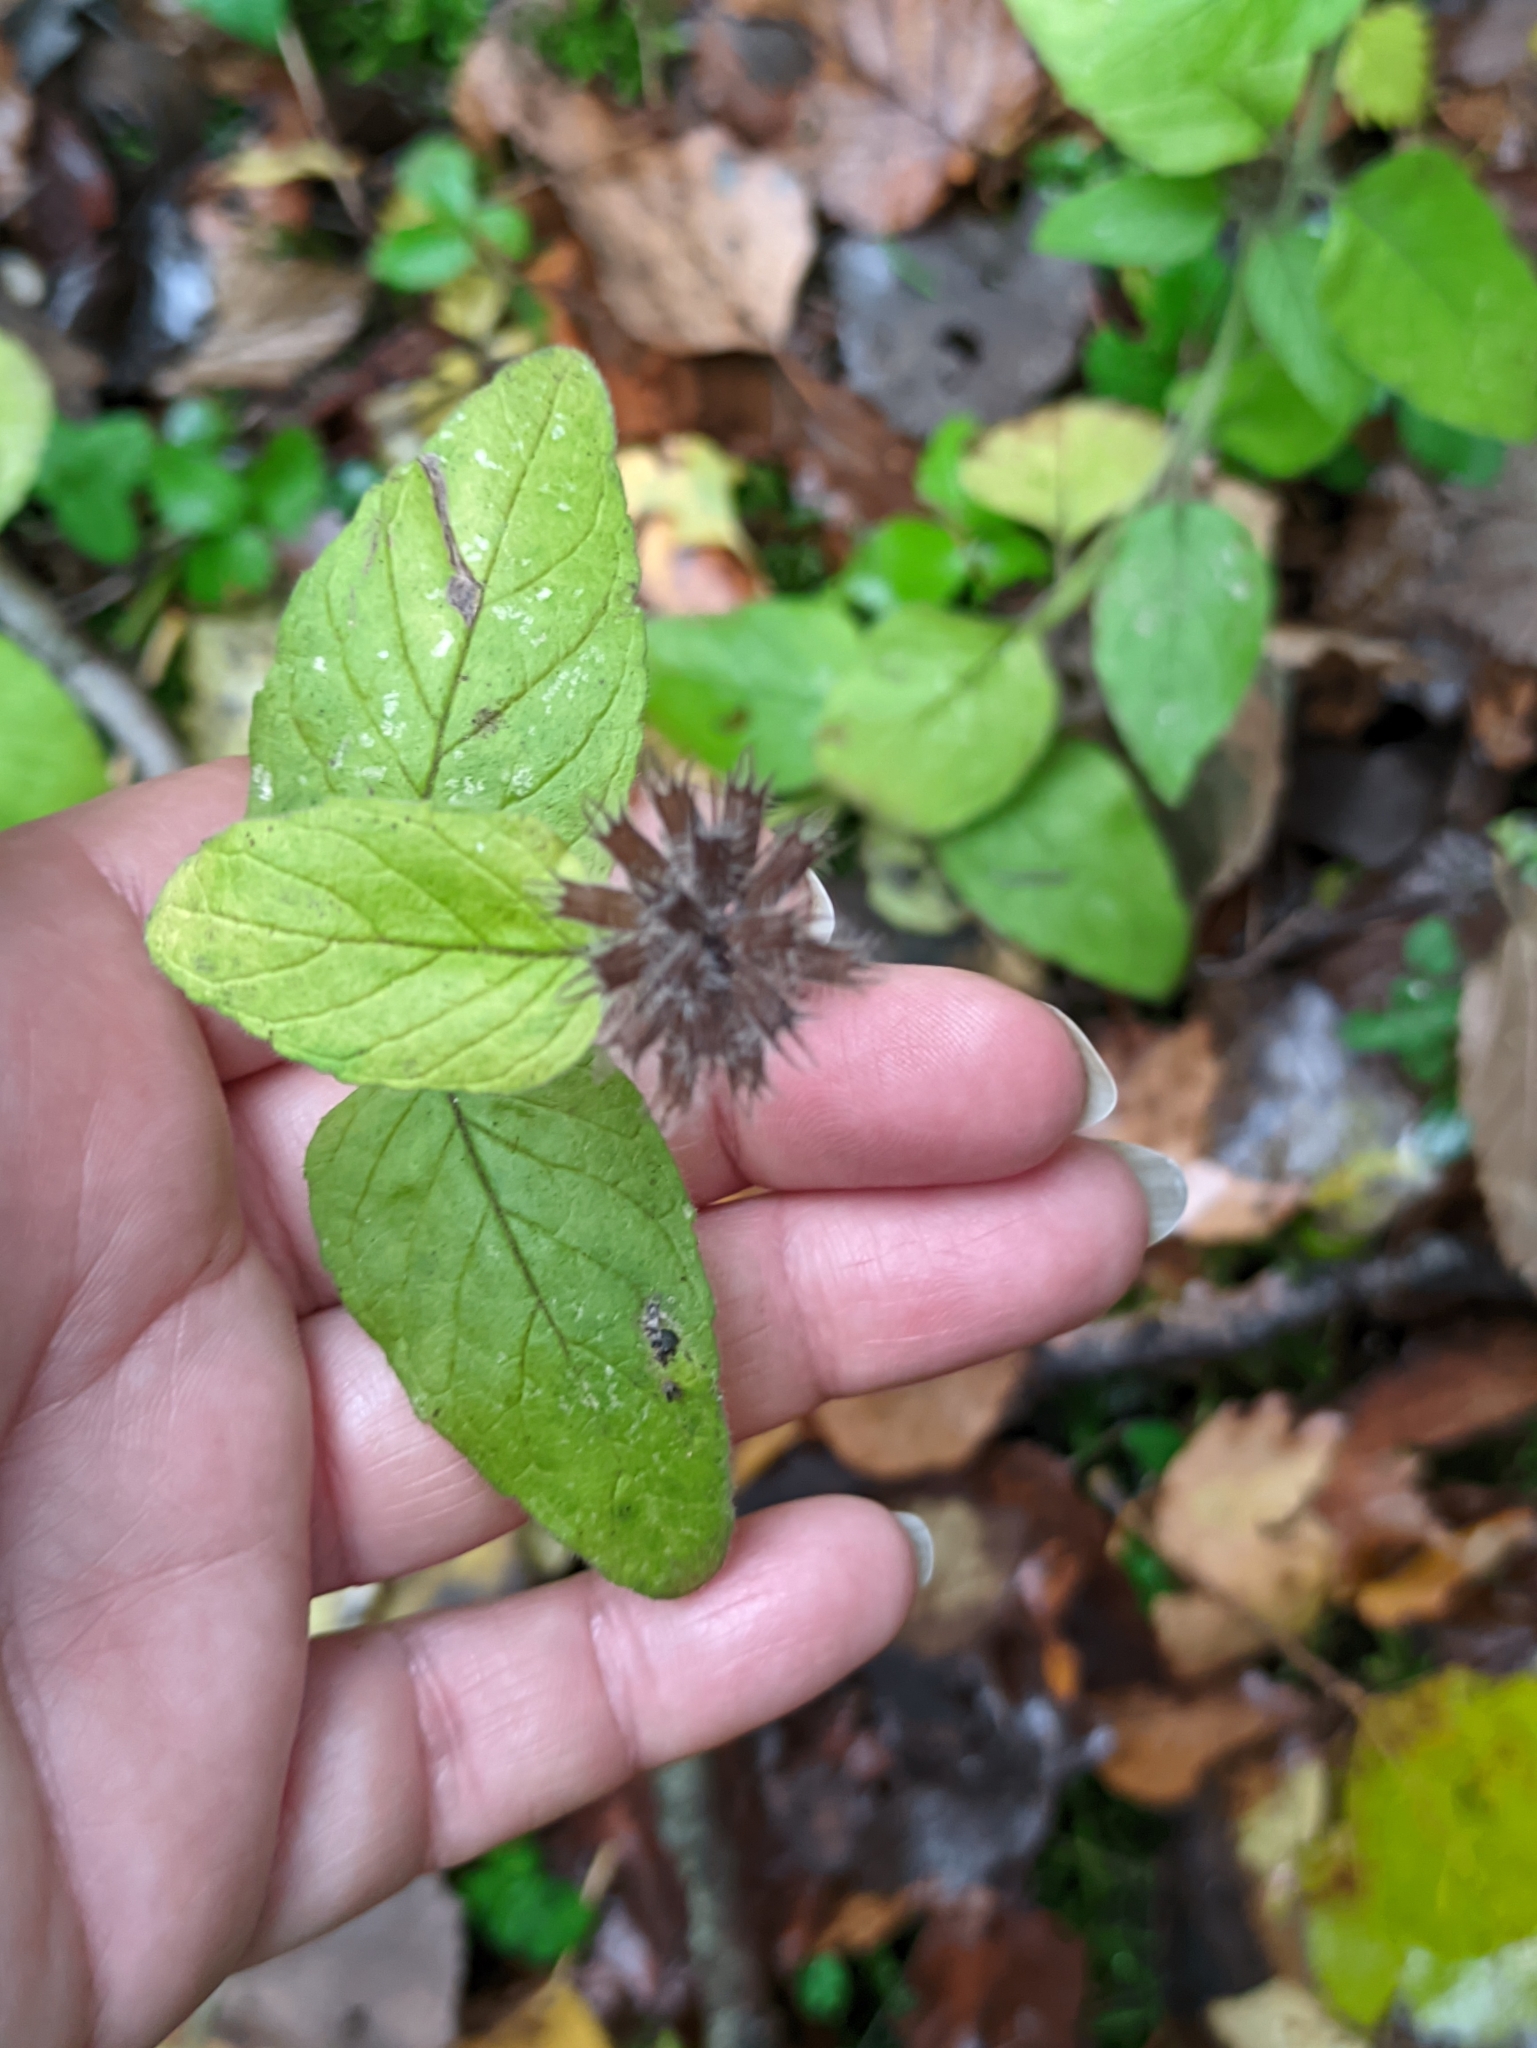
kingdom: Plantae
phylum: Tracheophyta
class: Magnoliopsida
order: Lamiales
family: Lamiaceae
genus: Clinopodium
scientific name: Clinopodium vulgare
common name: Wild basil
